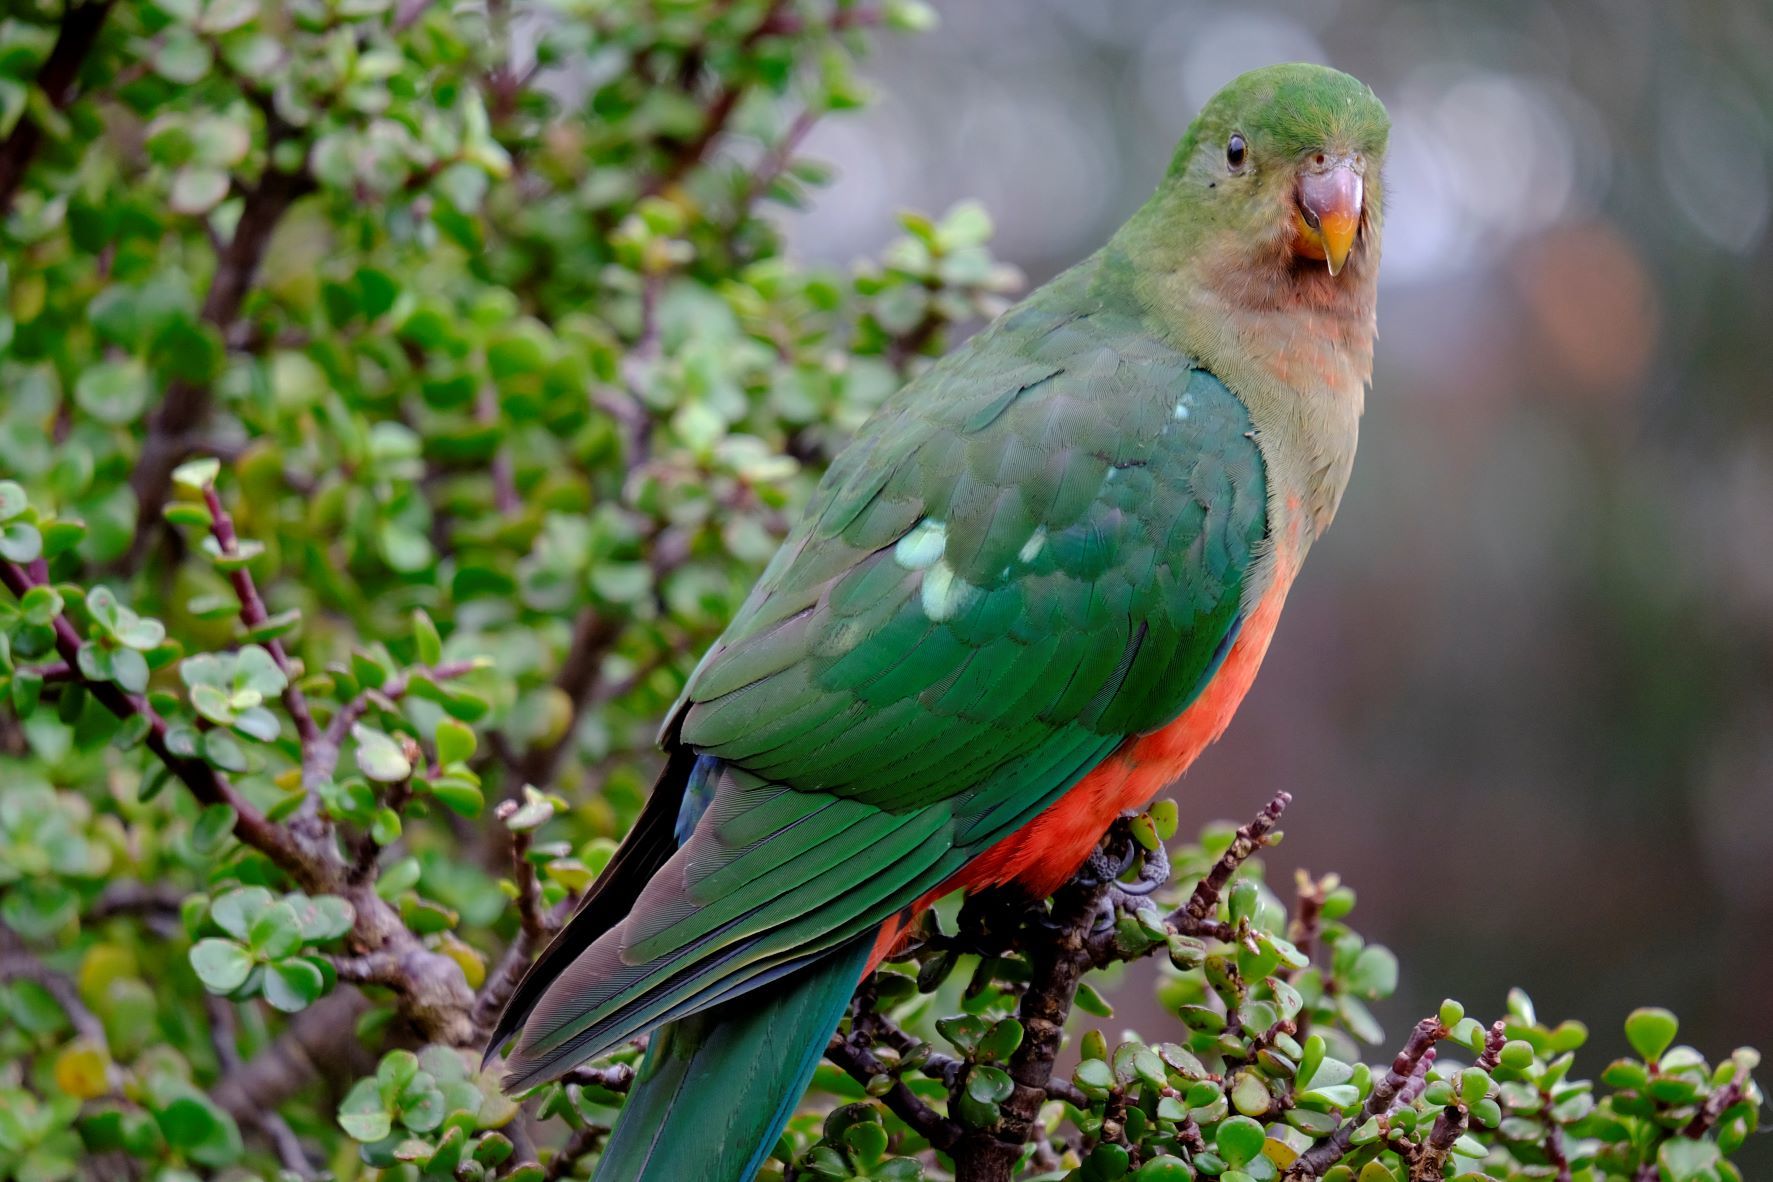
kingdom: Animalia
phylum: Chordata
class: Aves
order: Psittaciformes
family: Psittacidae
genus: Alisterus
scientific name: Alisterus scapularis
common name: Australian king parrot
